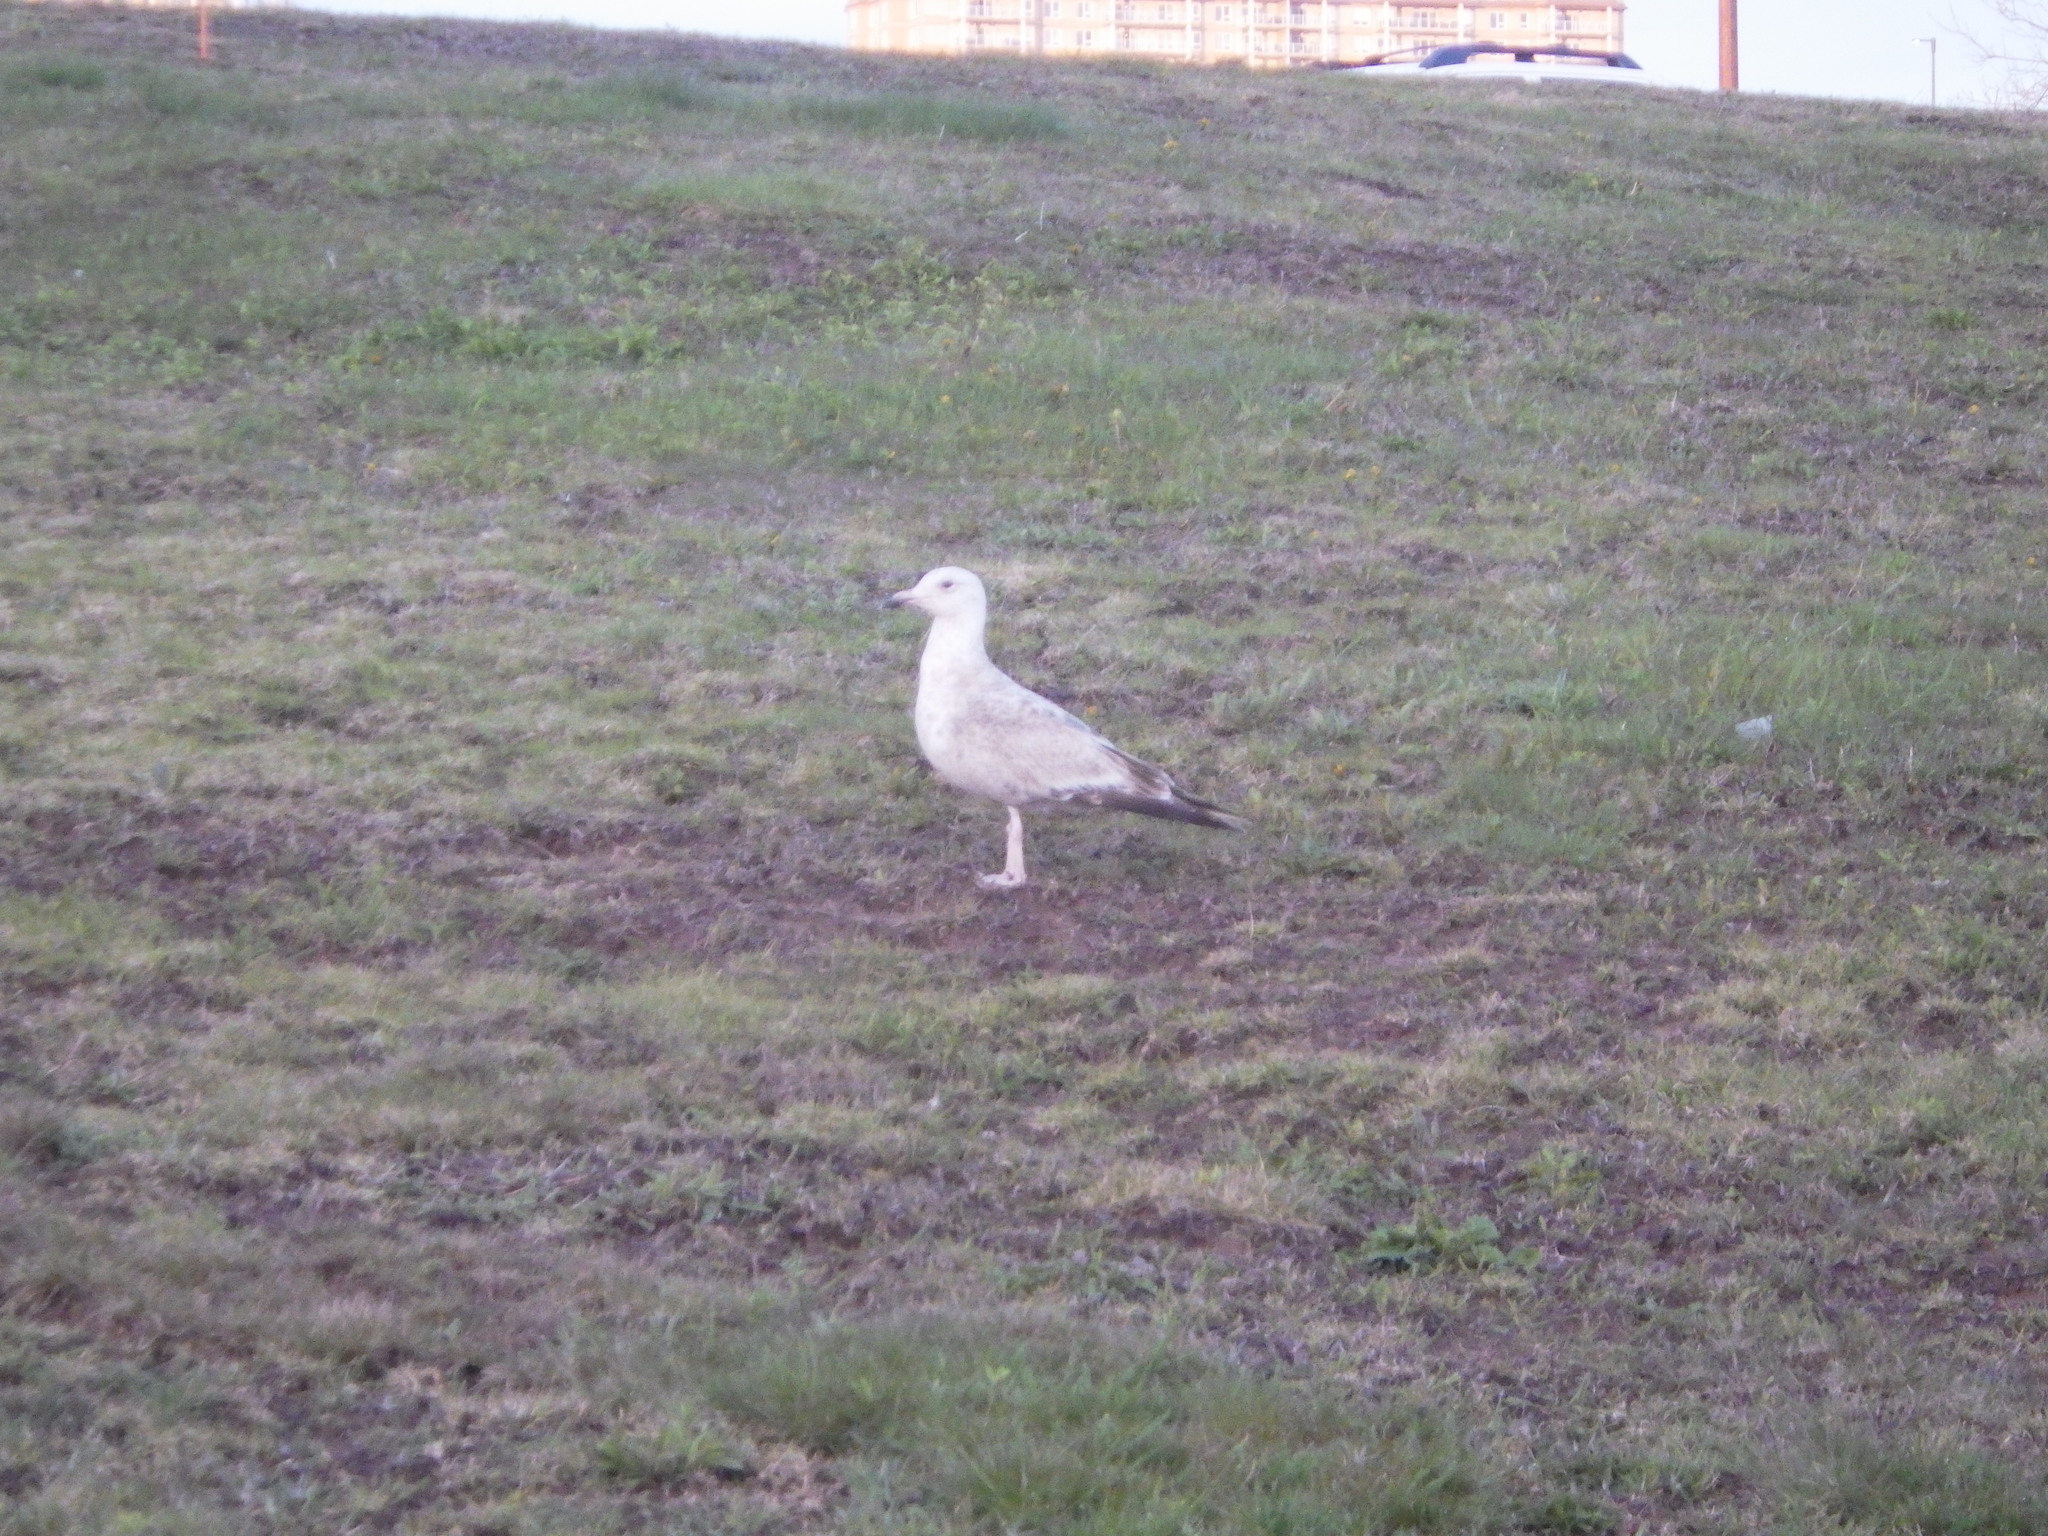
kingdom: Animalia
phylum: Chordata
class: Aves
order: Charadriiformes
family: Laridae
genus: Larus
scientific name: Larus argentatus
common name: Herring gull
